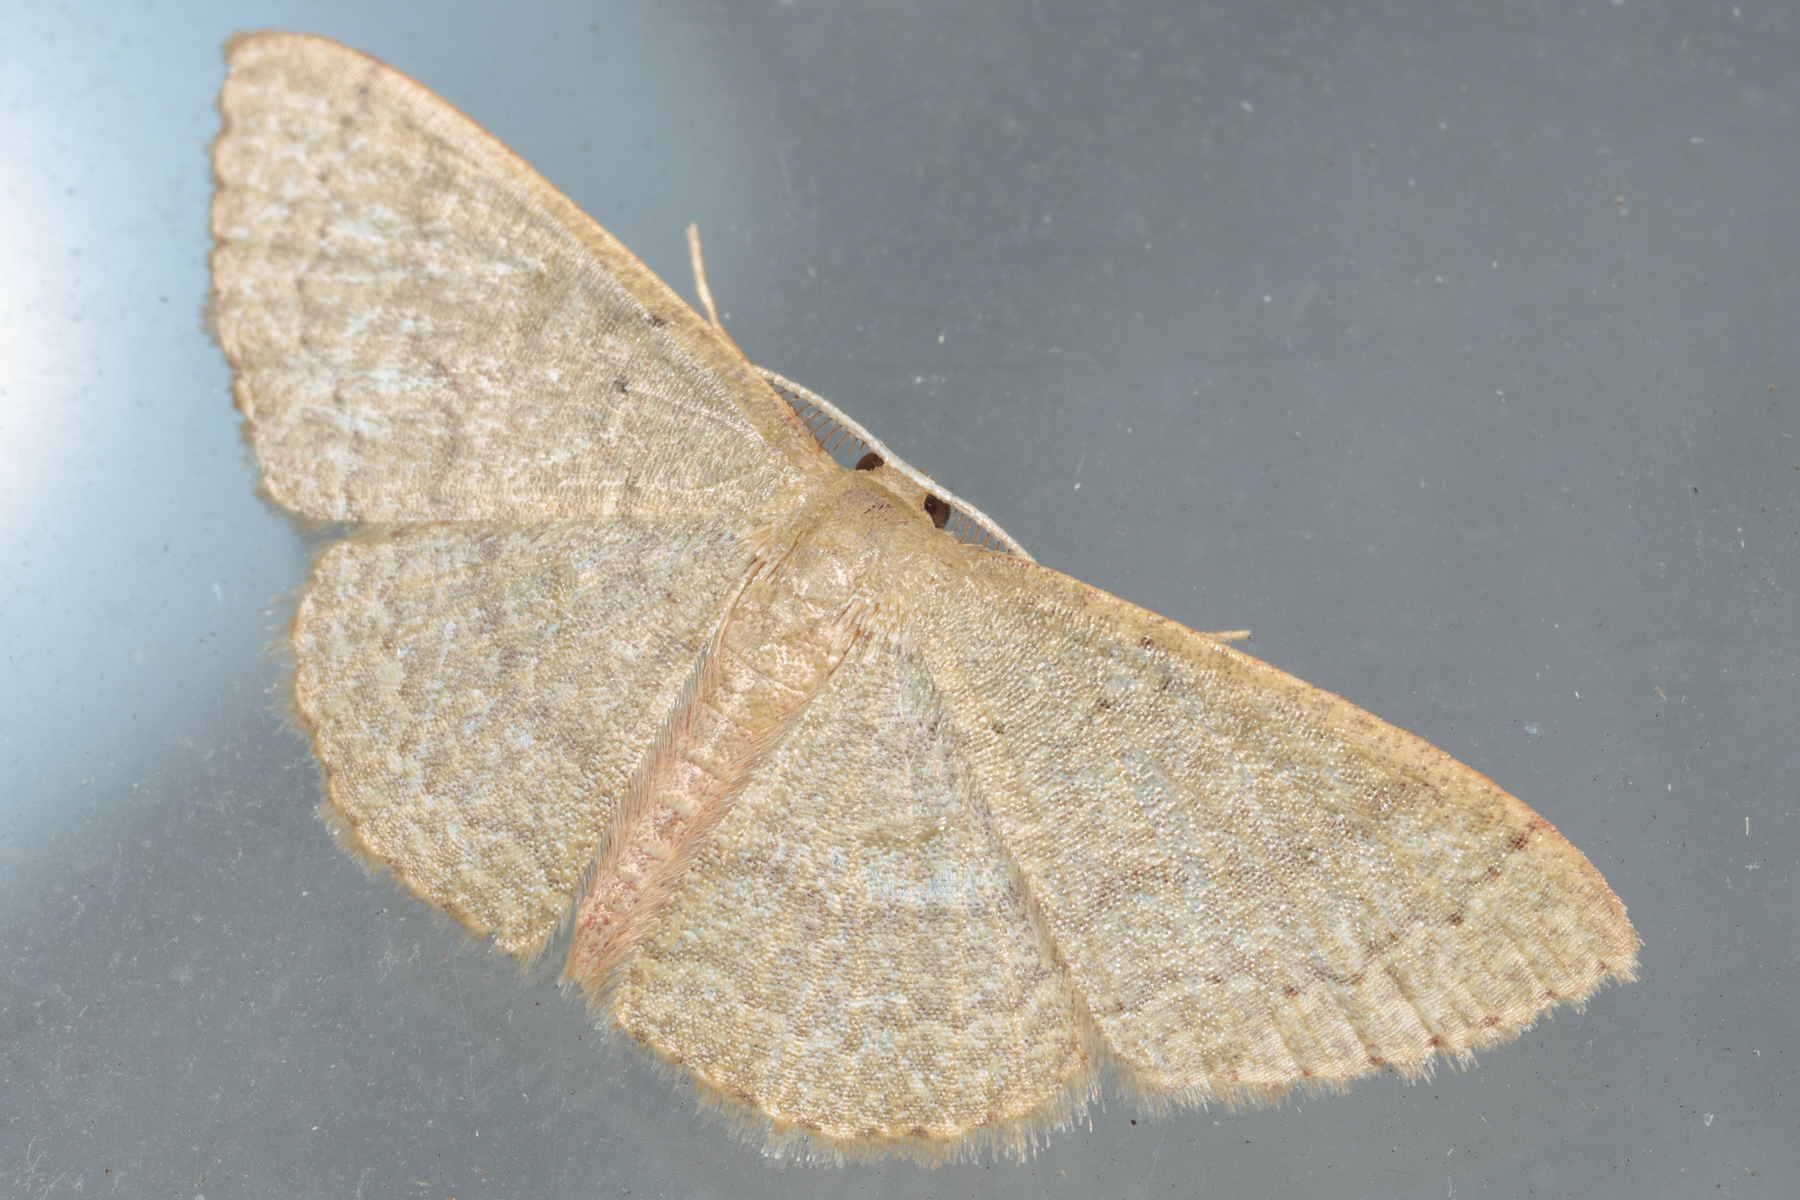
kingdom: Animalia
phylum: Arthropoda
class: Insecta
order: Lepidoptera
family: Geometridae
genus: Pleuroprucha
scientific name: Pleuroprucha insulsaria
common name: Common tan wave
